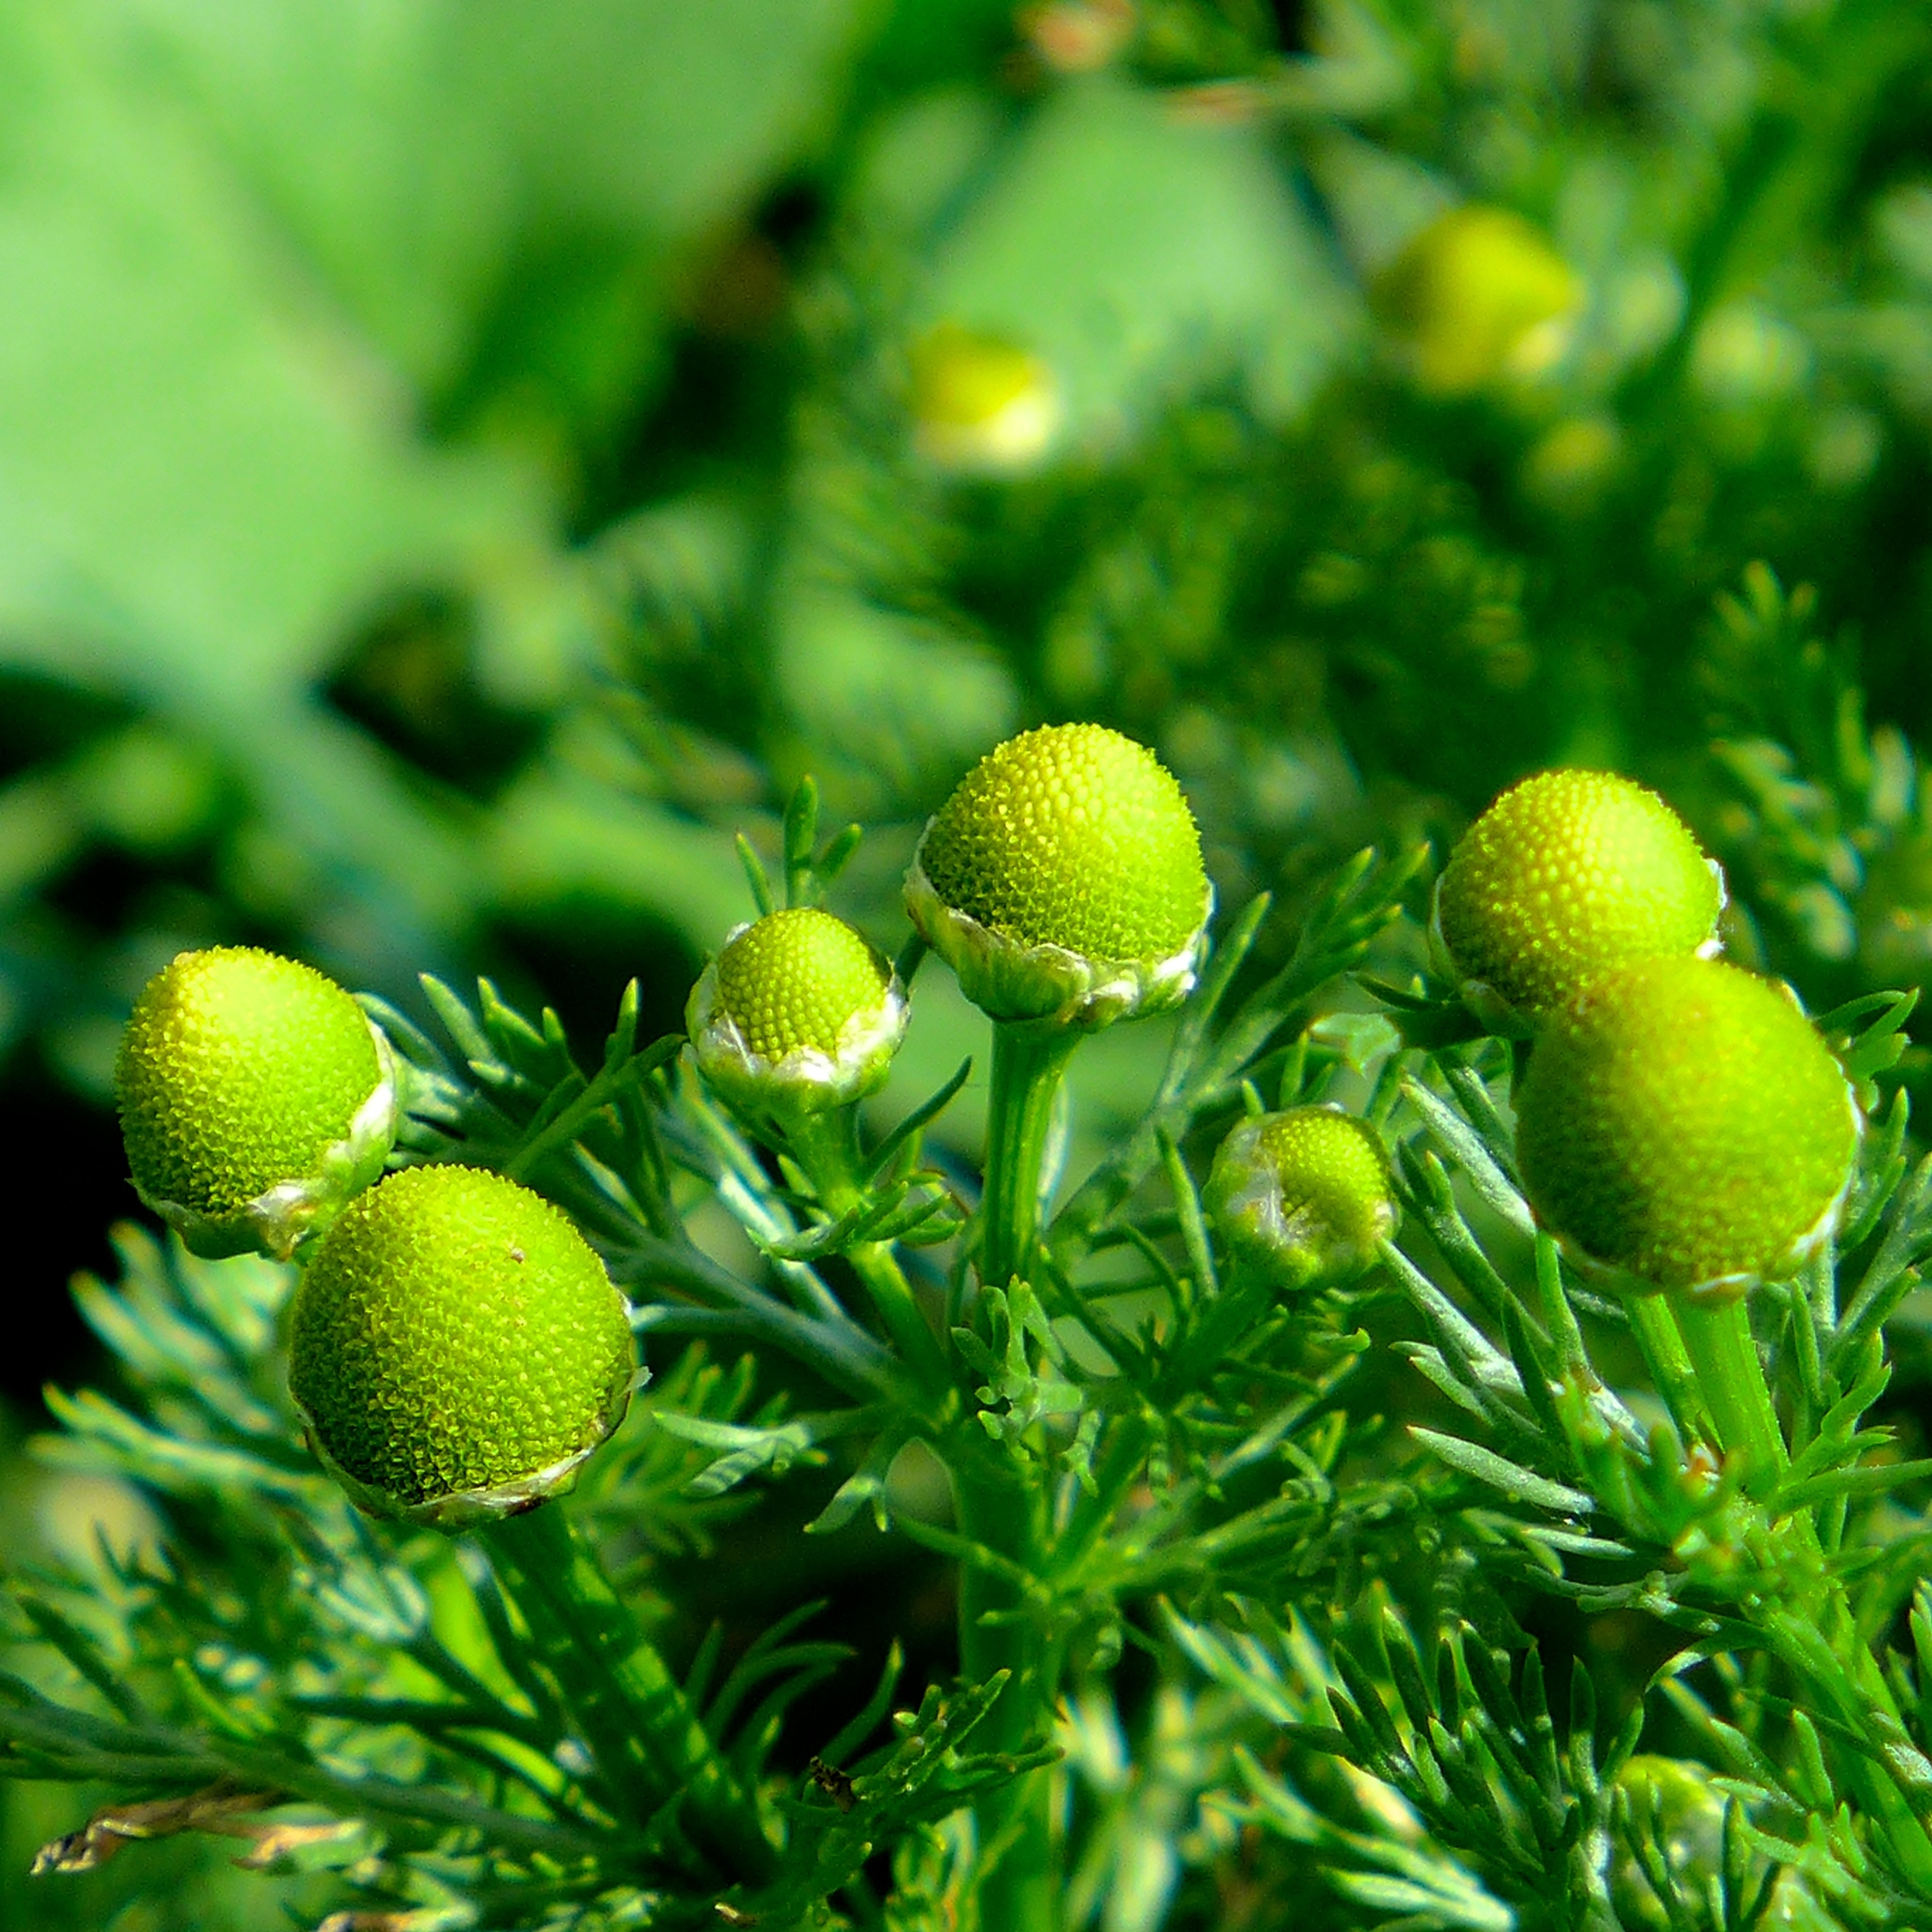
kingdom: Plantae
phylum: Tracheophyta
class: Magnoliopsida
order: Asterales
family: Asteraceae
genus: Matricaria
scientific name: Matricaria discoidea
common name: Disc mayweed
